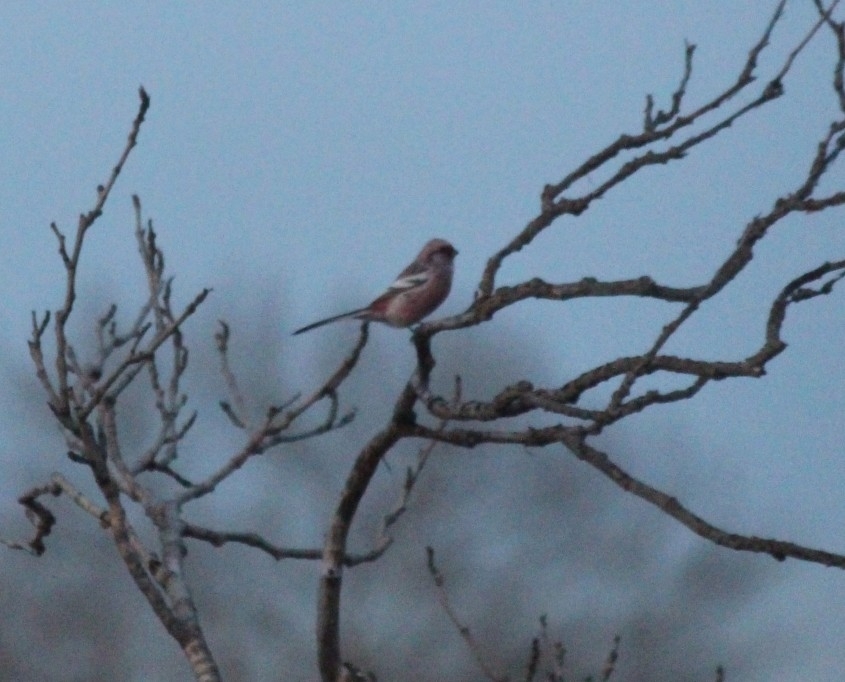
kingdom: Animalia
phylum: Chordata
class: Aves
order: Passeriformes
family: Fringillidae
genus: Carpodacus
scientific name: Carpodacus sibiricus
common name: Long-tailed rosefinch
